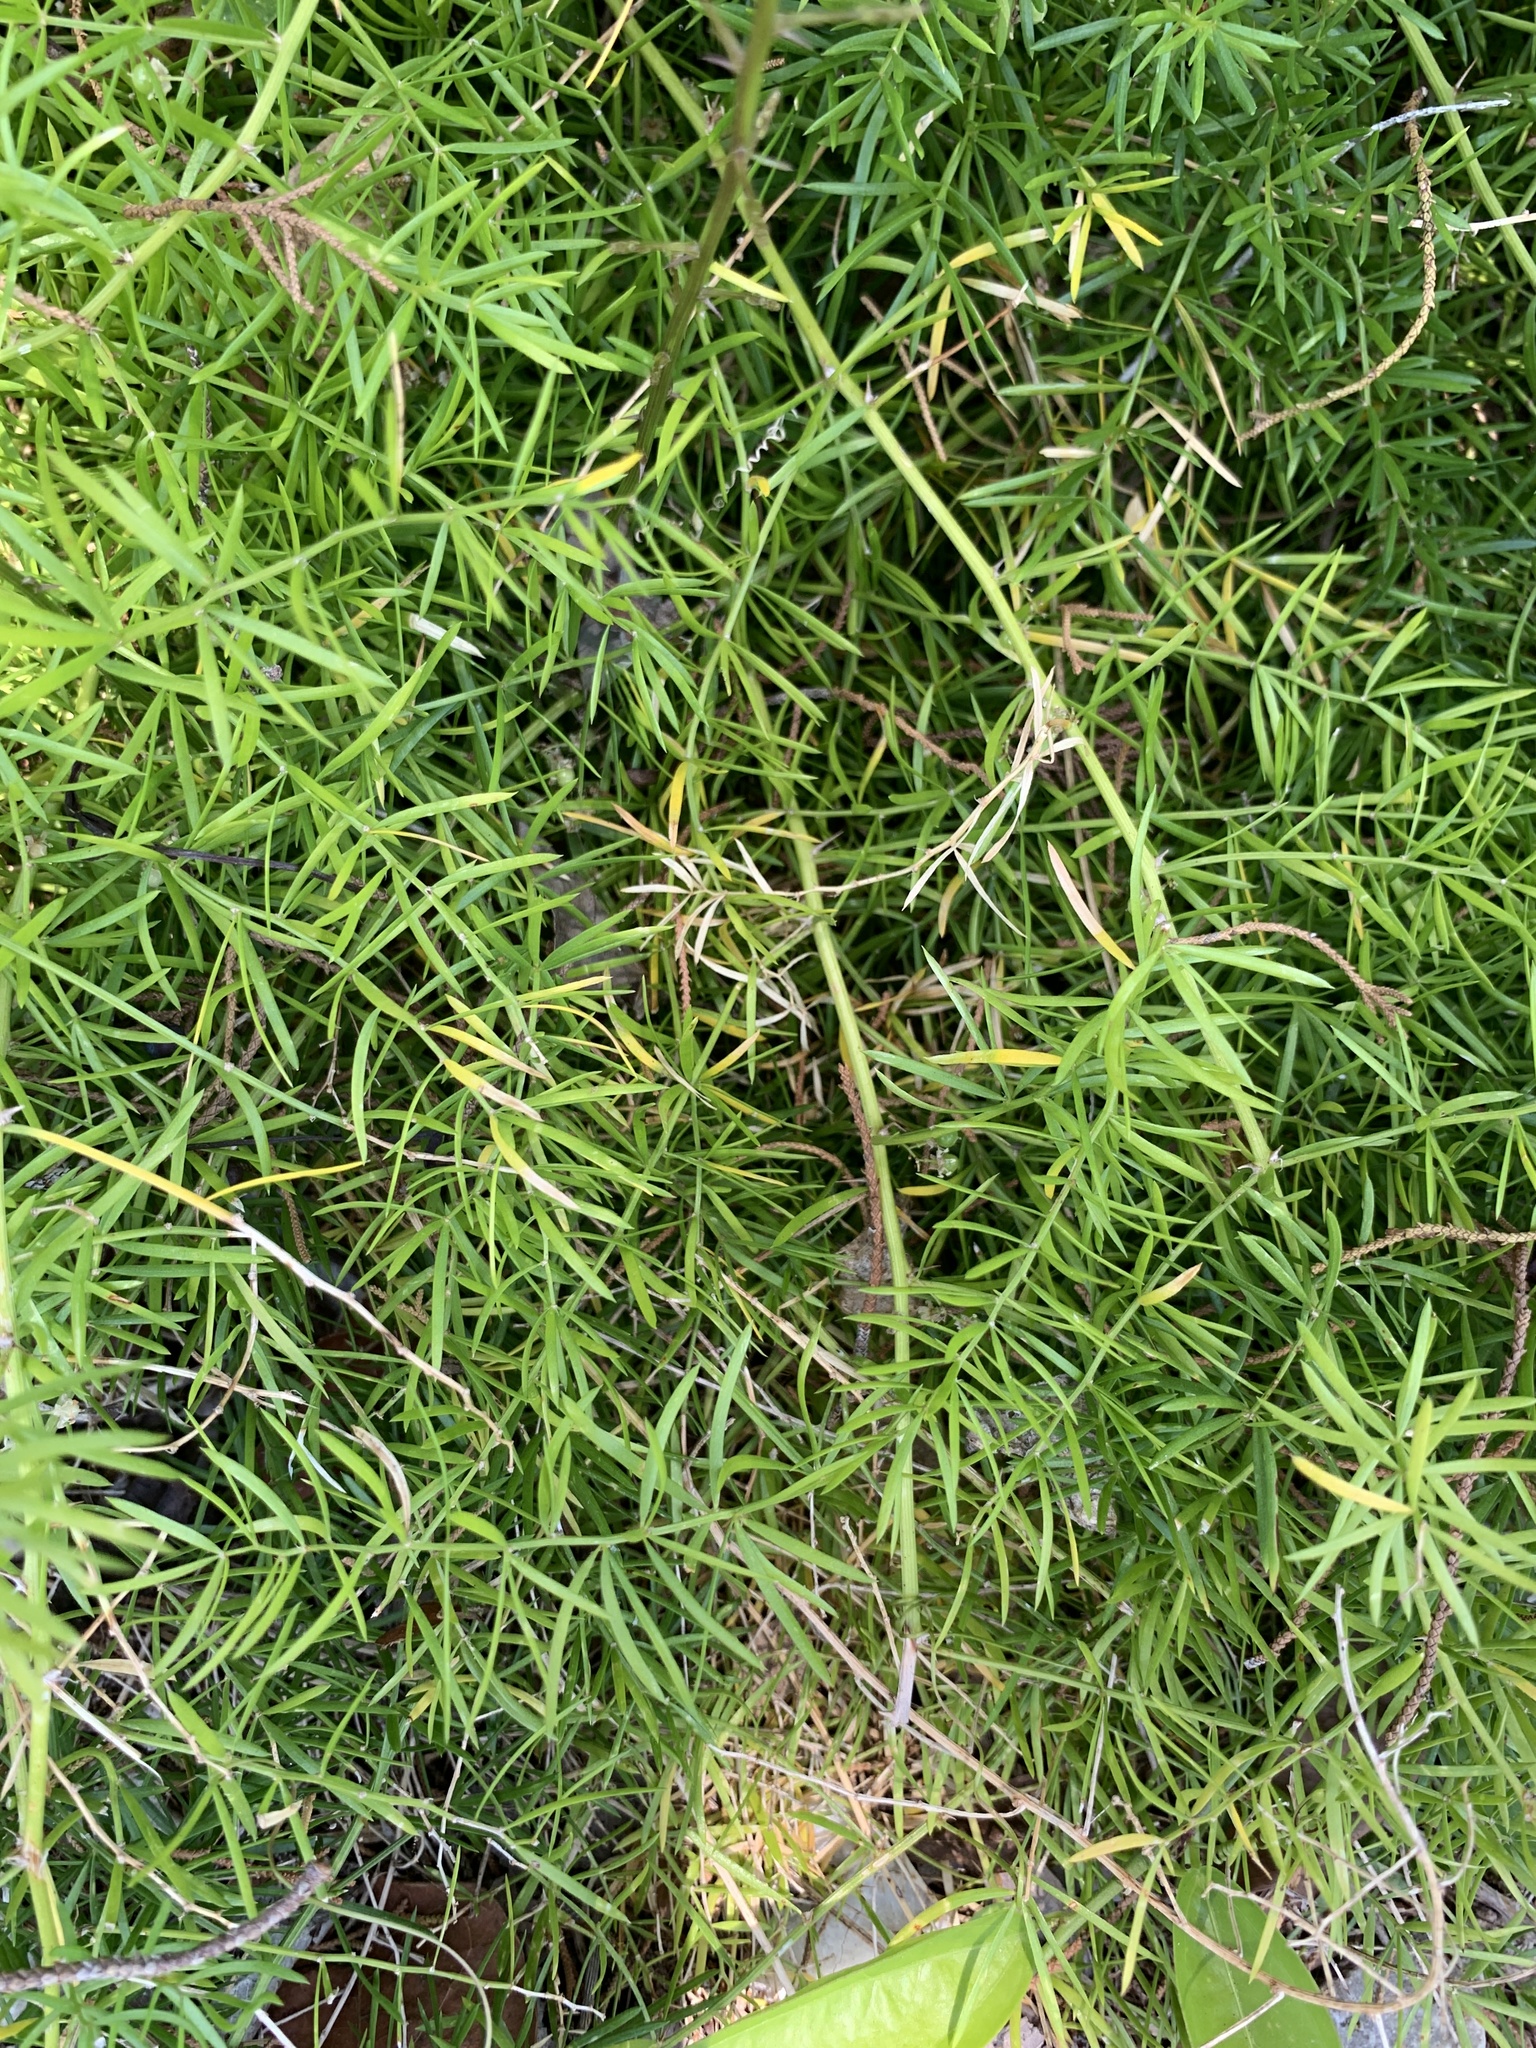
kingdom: Plantae
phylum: Tracheophyta
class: Liliopsida
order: Asparagales
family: Asparagaceae
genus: Asparagus
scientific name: Asparagus aethiopicus
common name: Sprenger's asparagus fern
